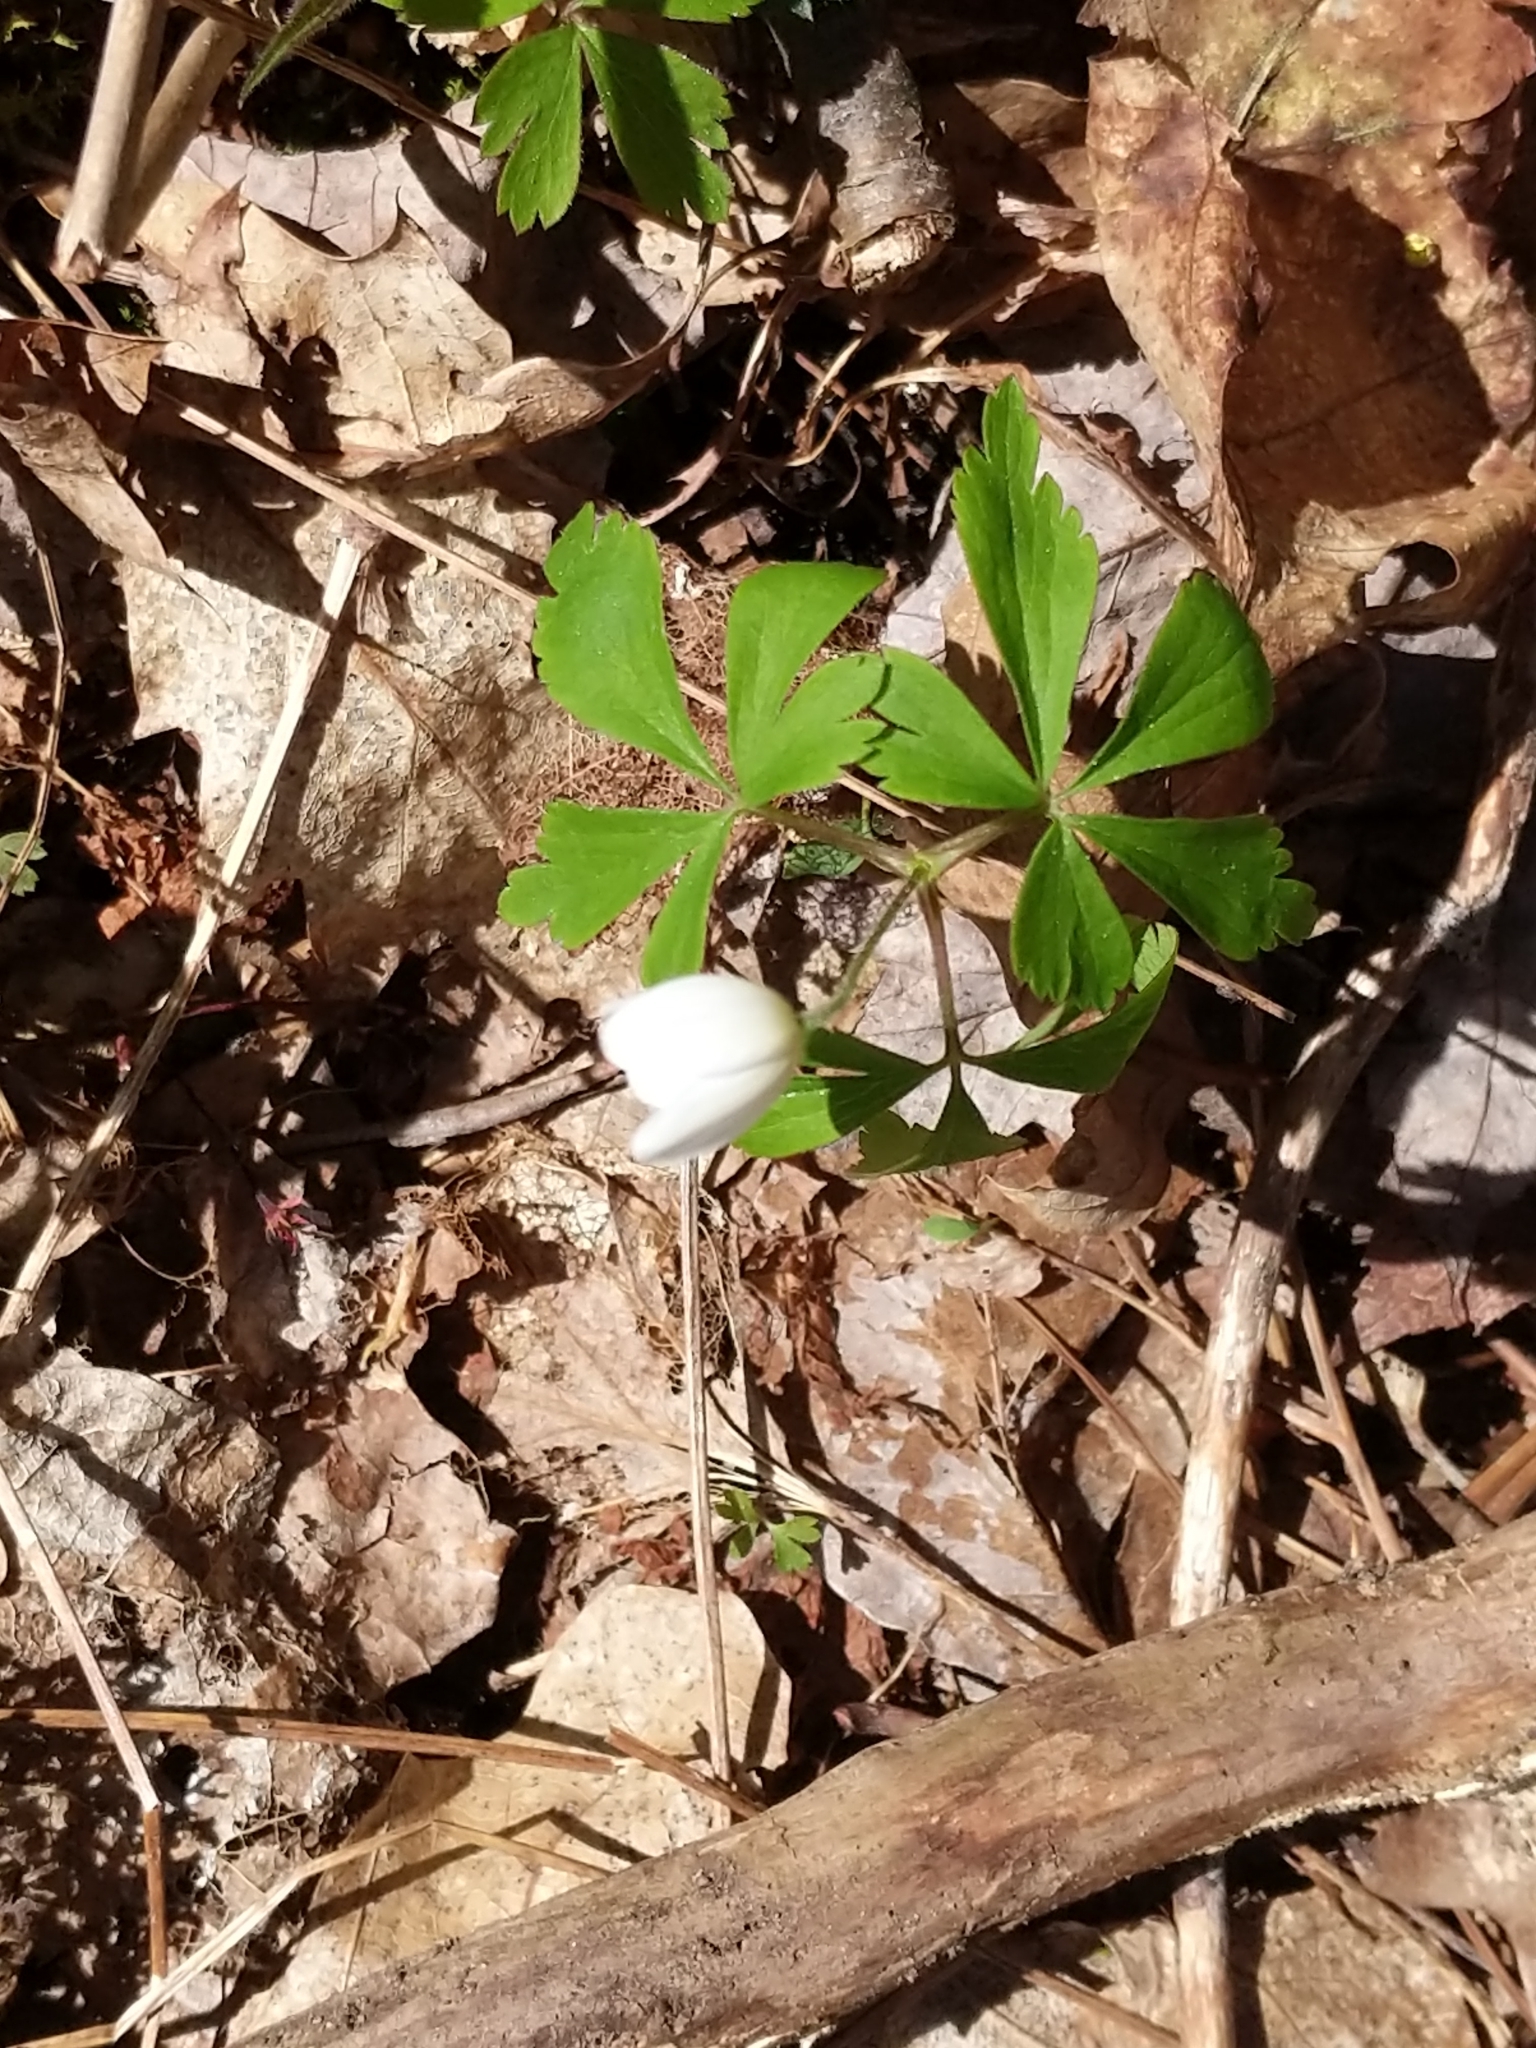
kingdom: Plantae
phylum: Tracheophyta
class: Magnoliopsida
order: Ranunculales
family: Ranunculaceae
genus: Anemone
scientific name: Anemone quinquefolia
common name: Wood anemone
